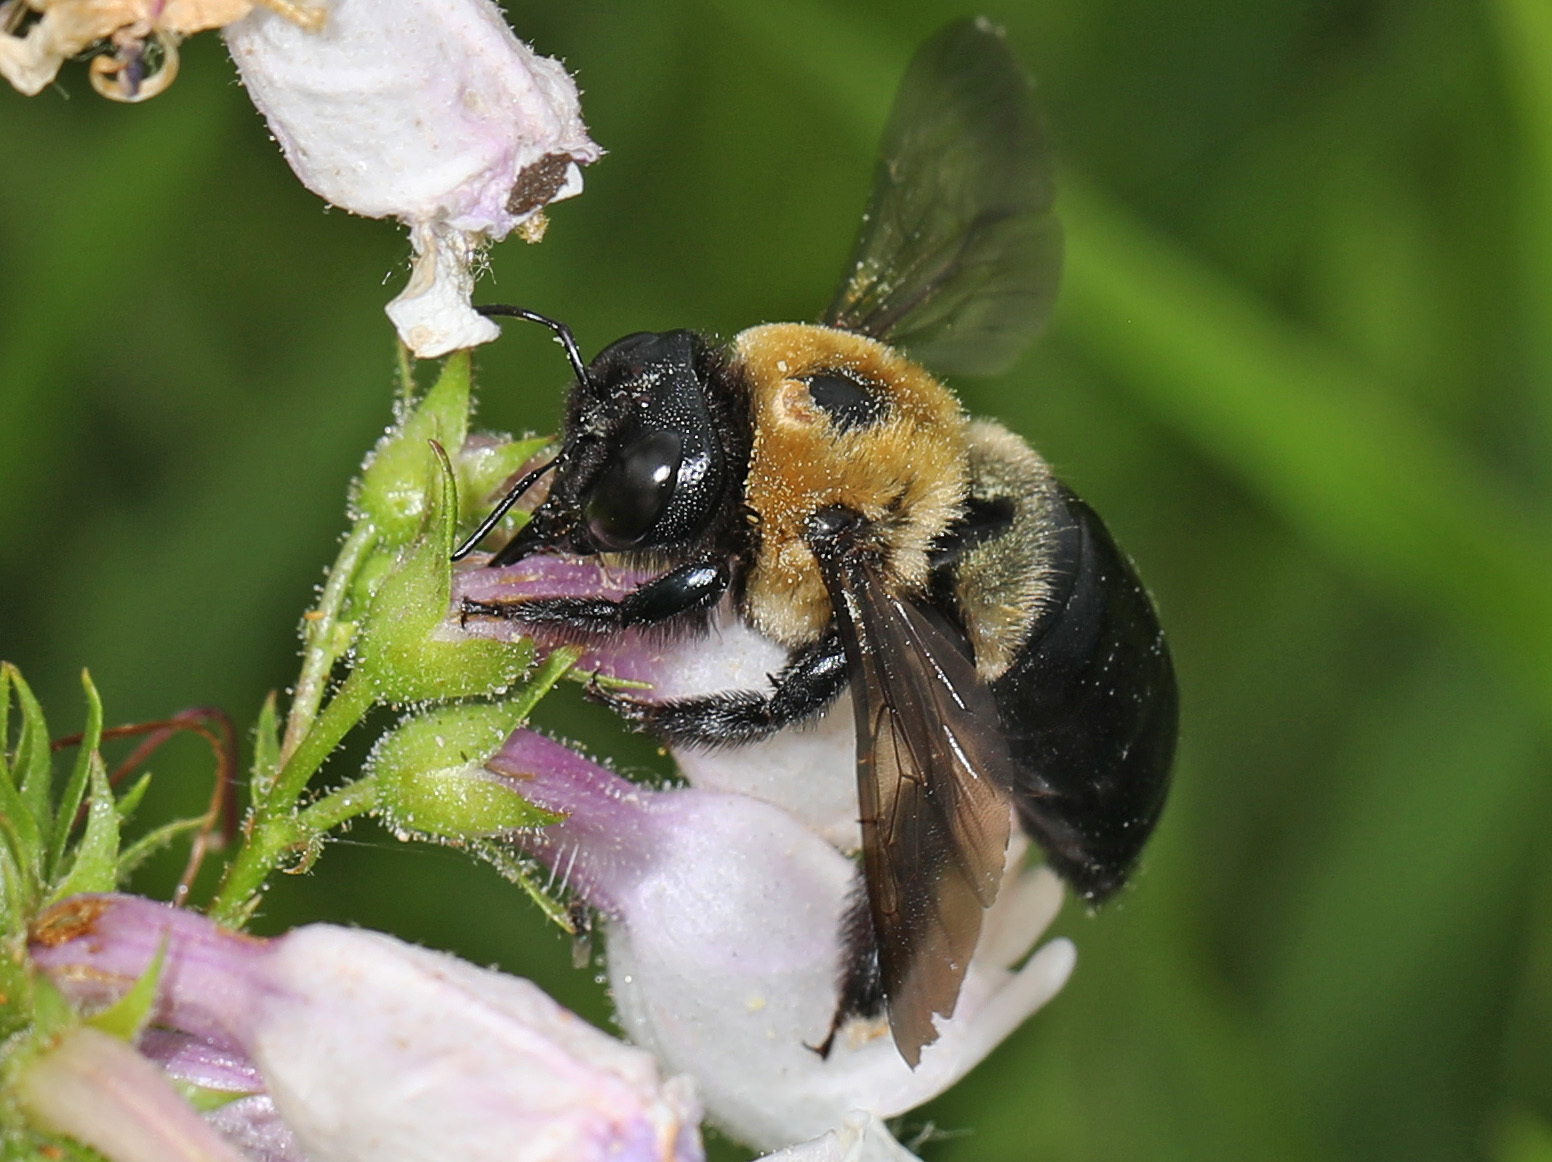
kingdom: Animalia
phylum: Arthropoda
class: Insecta
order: Hymenoptera
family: Apidae
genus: Xylocopa
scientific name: Xylocopa virginica
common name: Carpenter bee
